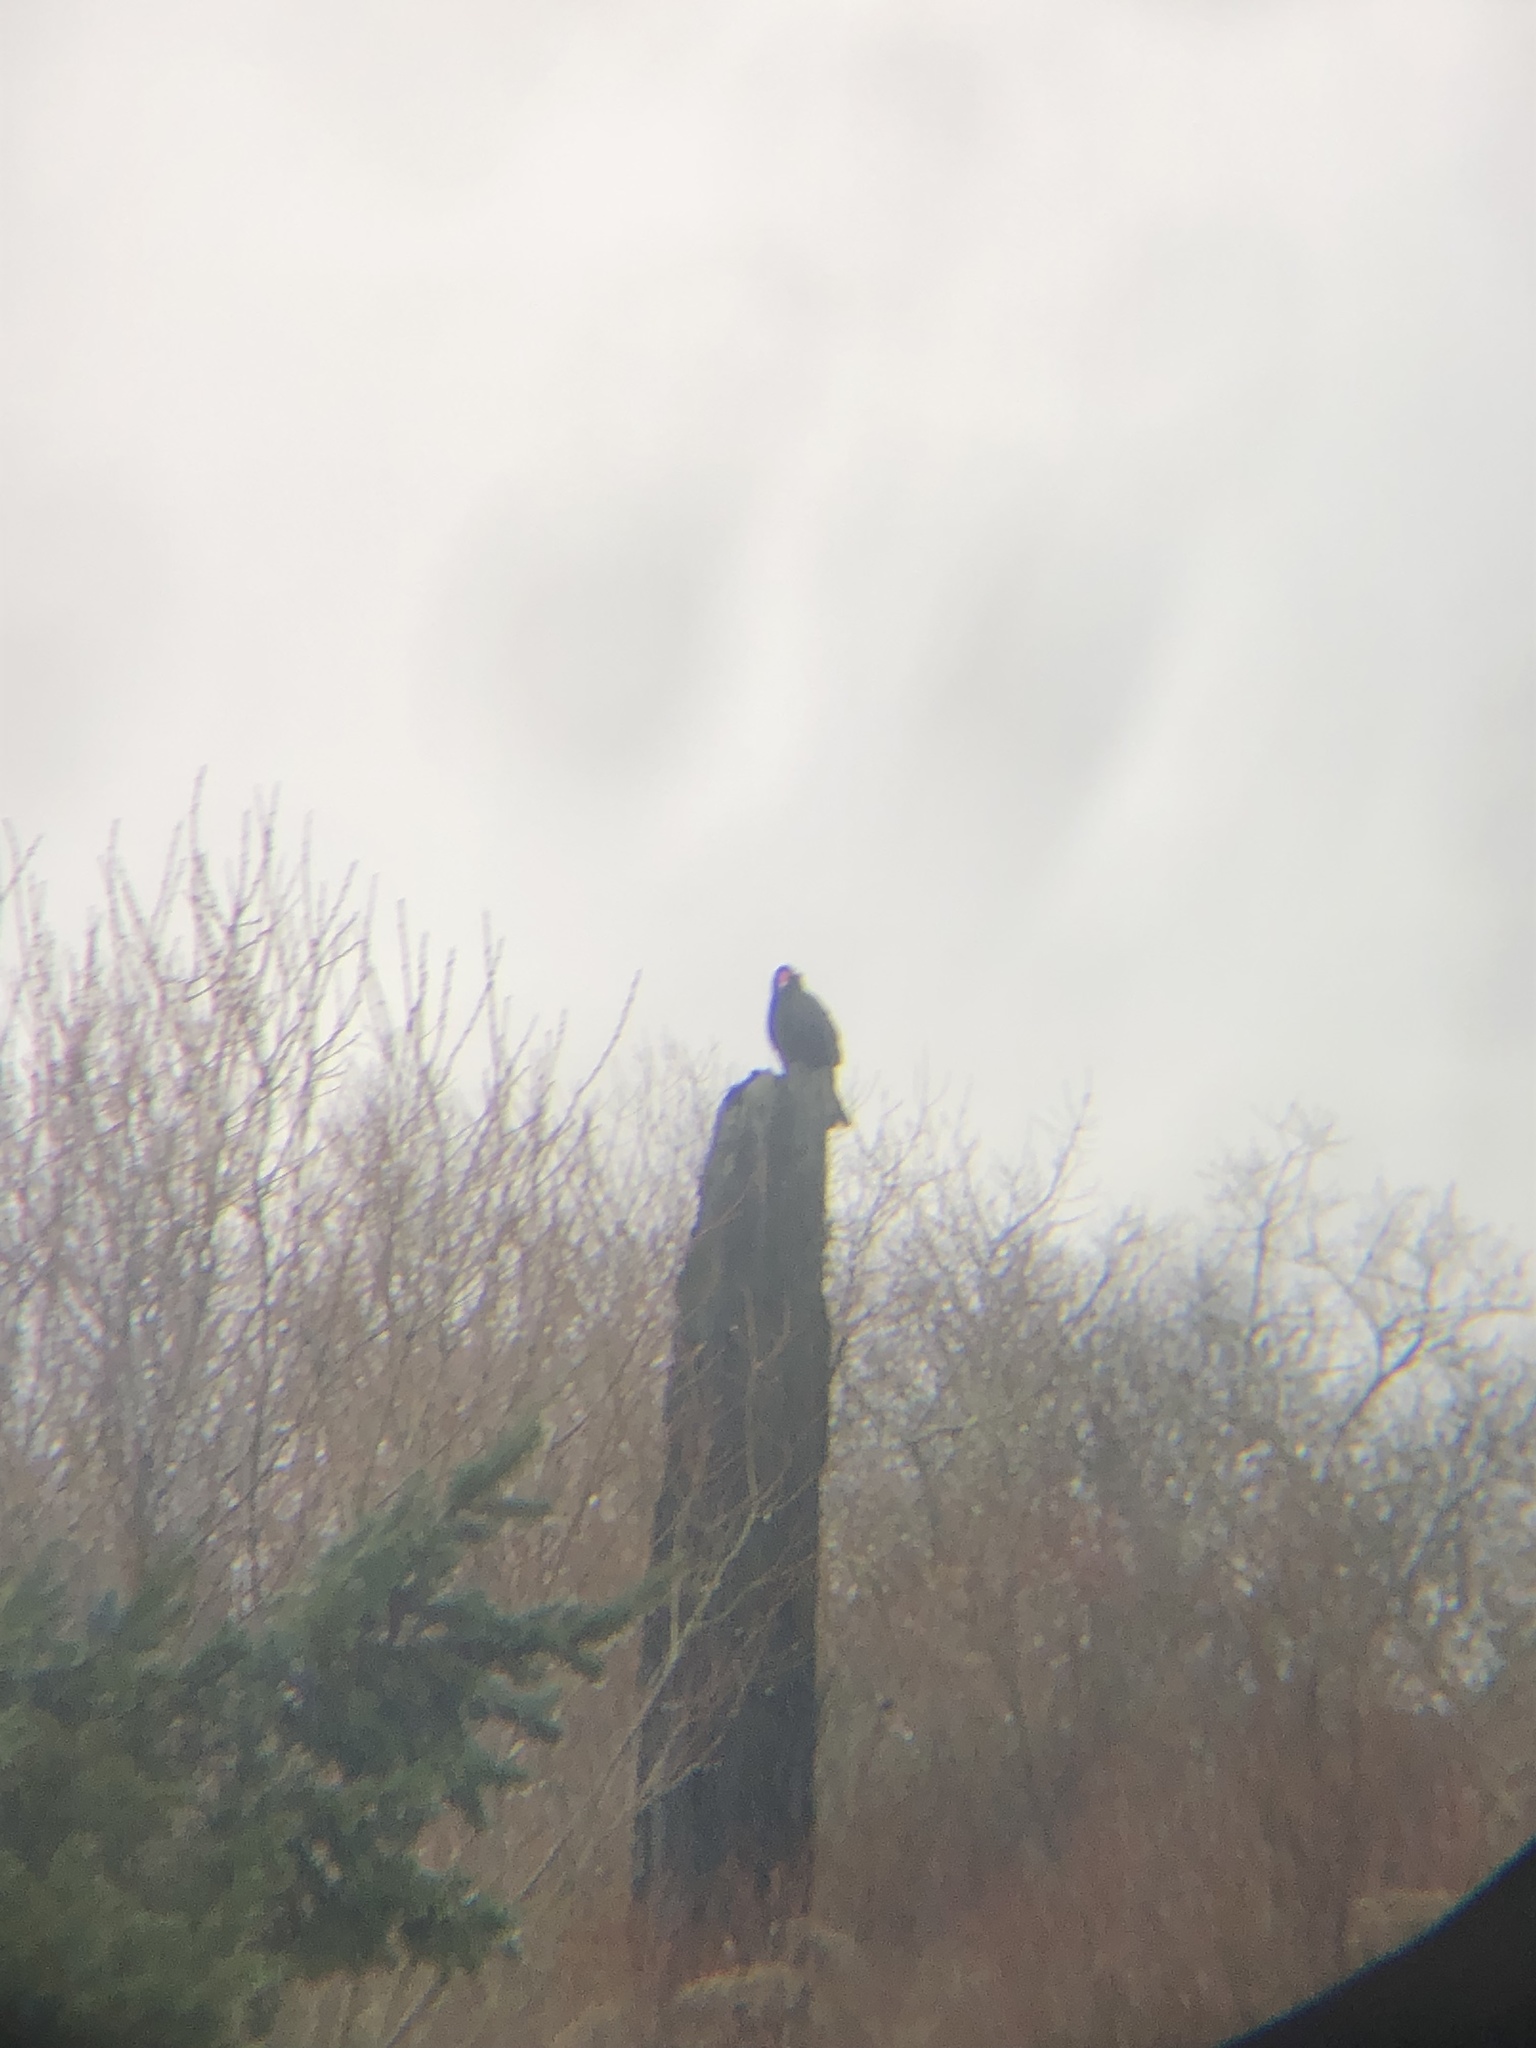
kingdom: Animalia
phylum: Chordata
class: Aves
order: Accipitriformes
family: Cathartidae
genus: Cathartes
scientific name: Cathartes aura
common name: Turkey vulture
